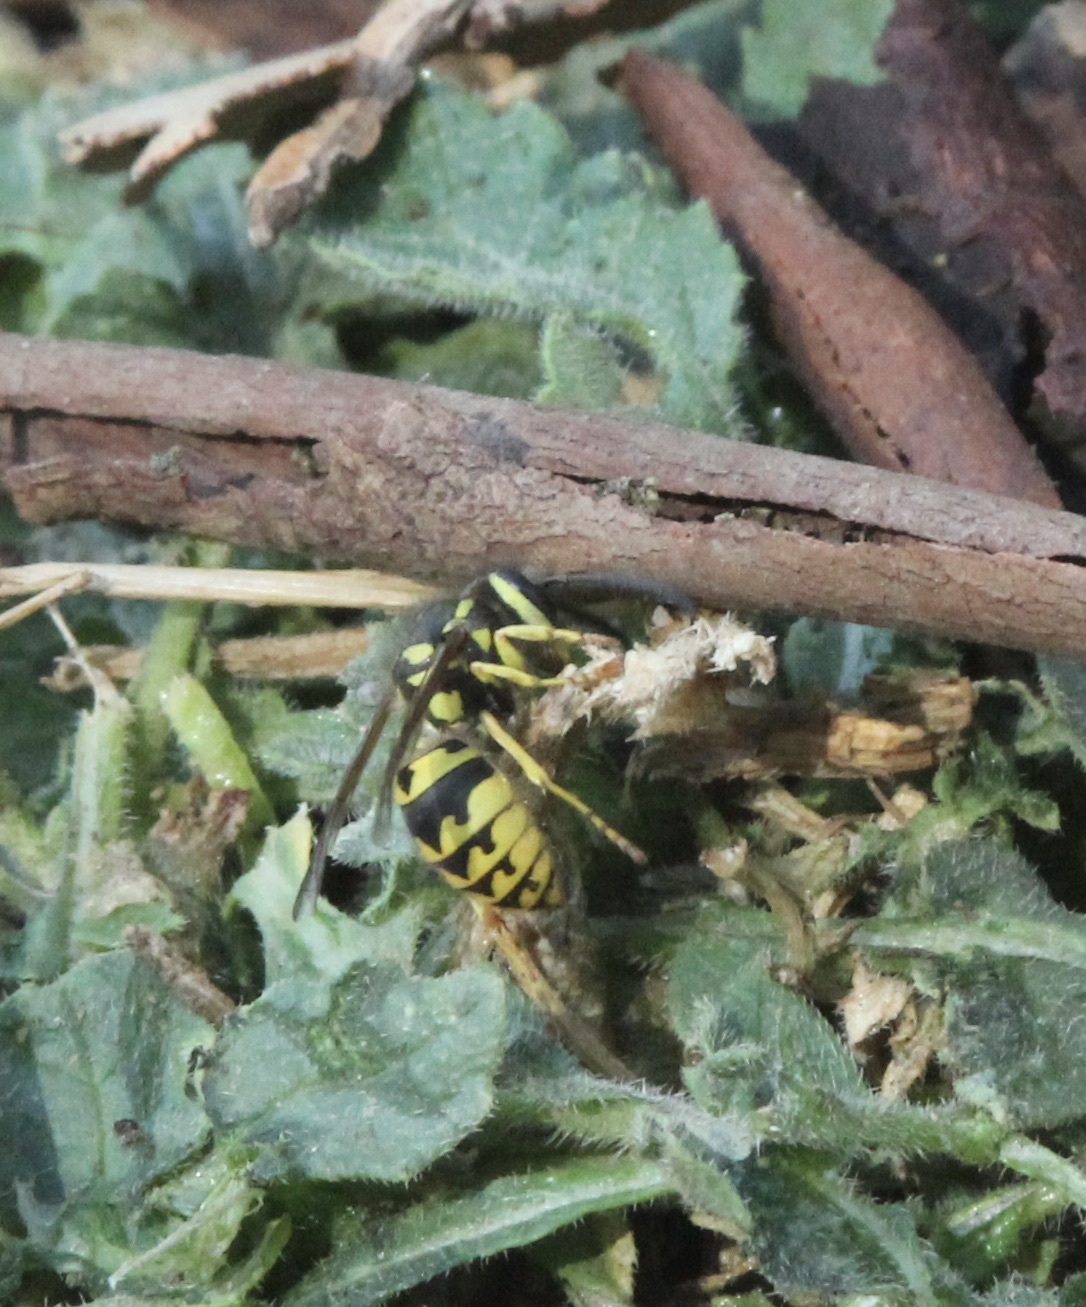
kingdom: Animalia
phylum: Arthropoda
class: Insecta
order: Hymenoptera
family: Vespidae
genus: Vespula
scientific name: Vespula pensylvanica
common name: Western yellowjacket
